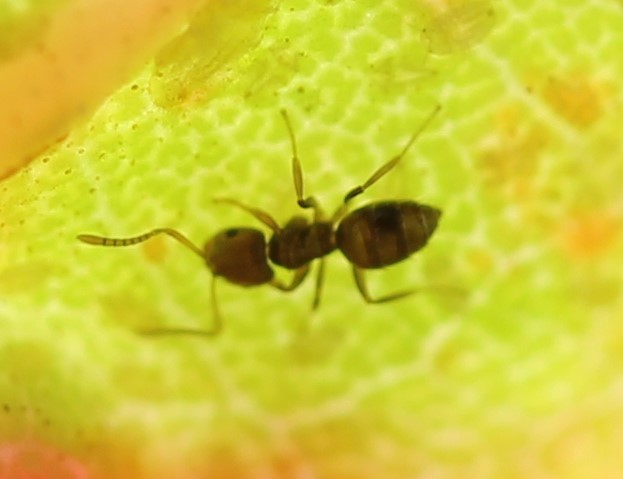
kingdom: Animalia
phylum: Arthropoda
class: Insecta
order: Hymenoptera
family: Formicidae
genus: Brachymyrmex
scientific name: Brachymyrmex obscurior
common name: Obscure rover ant
